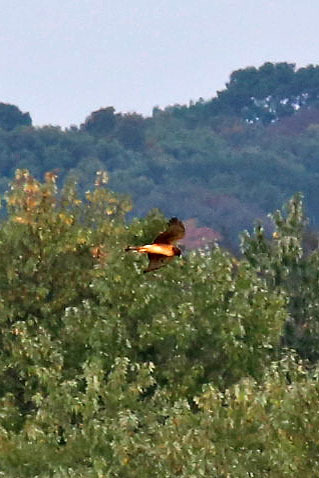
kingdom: Animalia
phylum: Chordata
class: Aves
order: Accipitriformes
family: Accipitridae
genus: Circus
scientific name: Circus cyaneus
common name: Hen harrier
